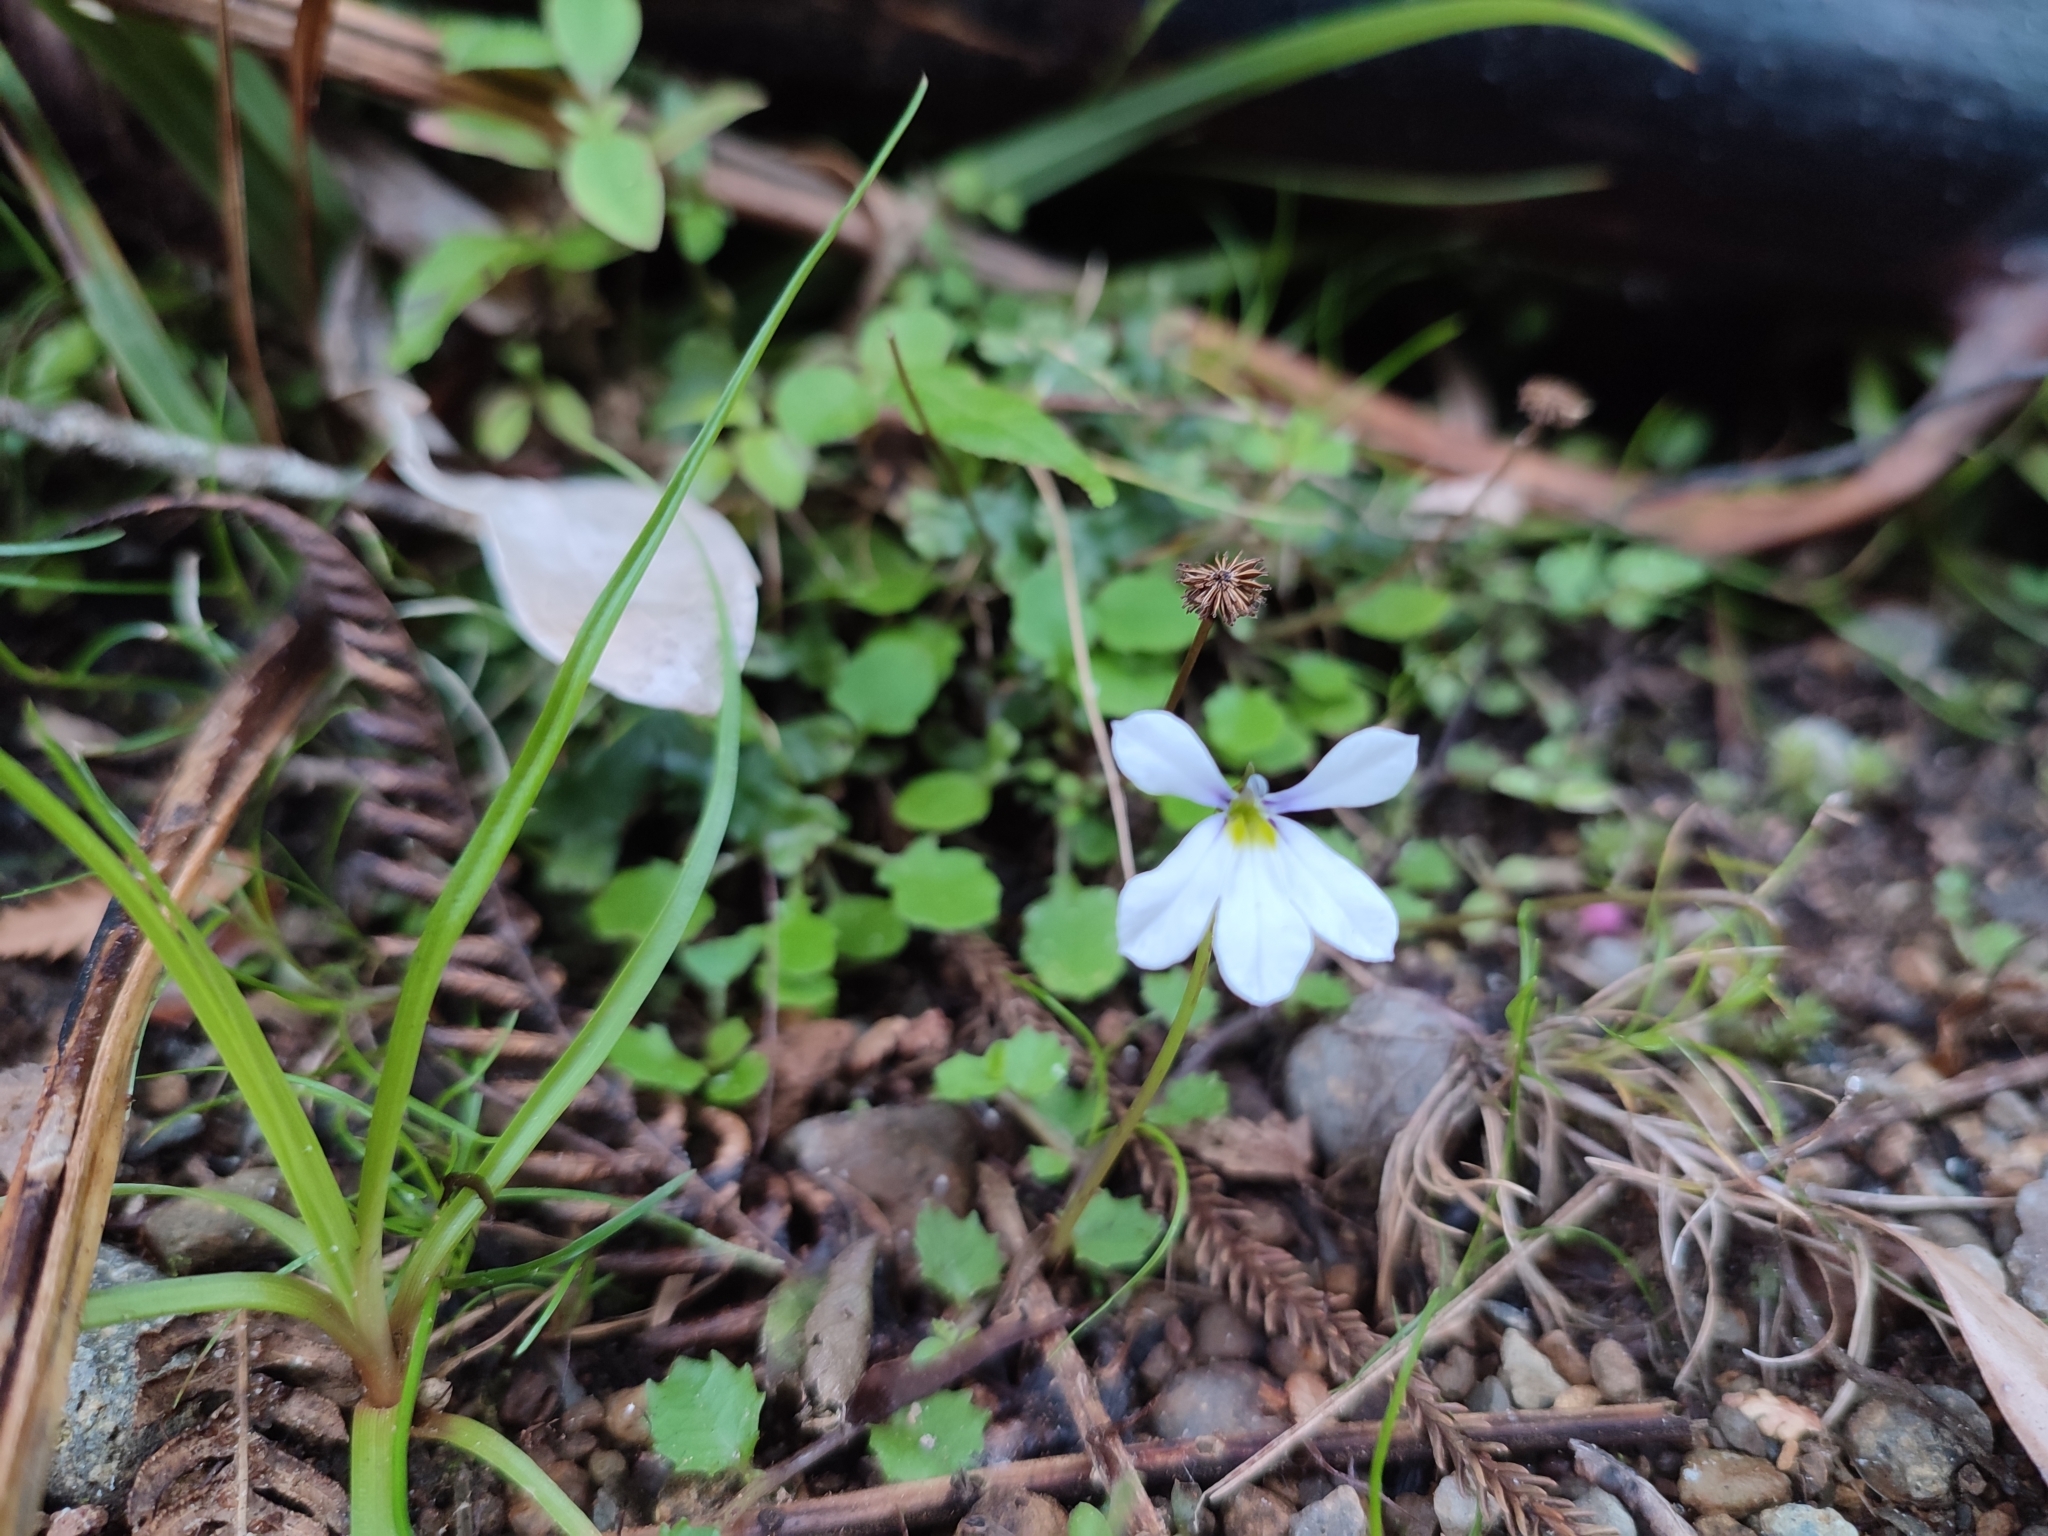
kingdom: Plantae
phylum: Tracheophyta
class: Magnoliopsida
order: Asterales
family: Campanulaceae
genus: Lobelia
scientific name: Lobelia angulata
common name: Lawn lobelia
